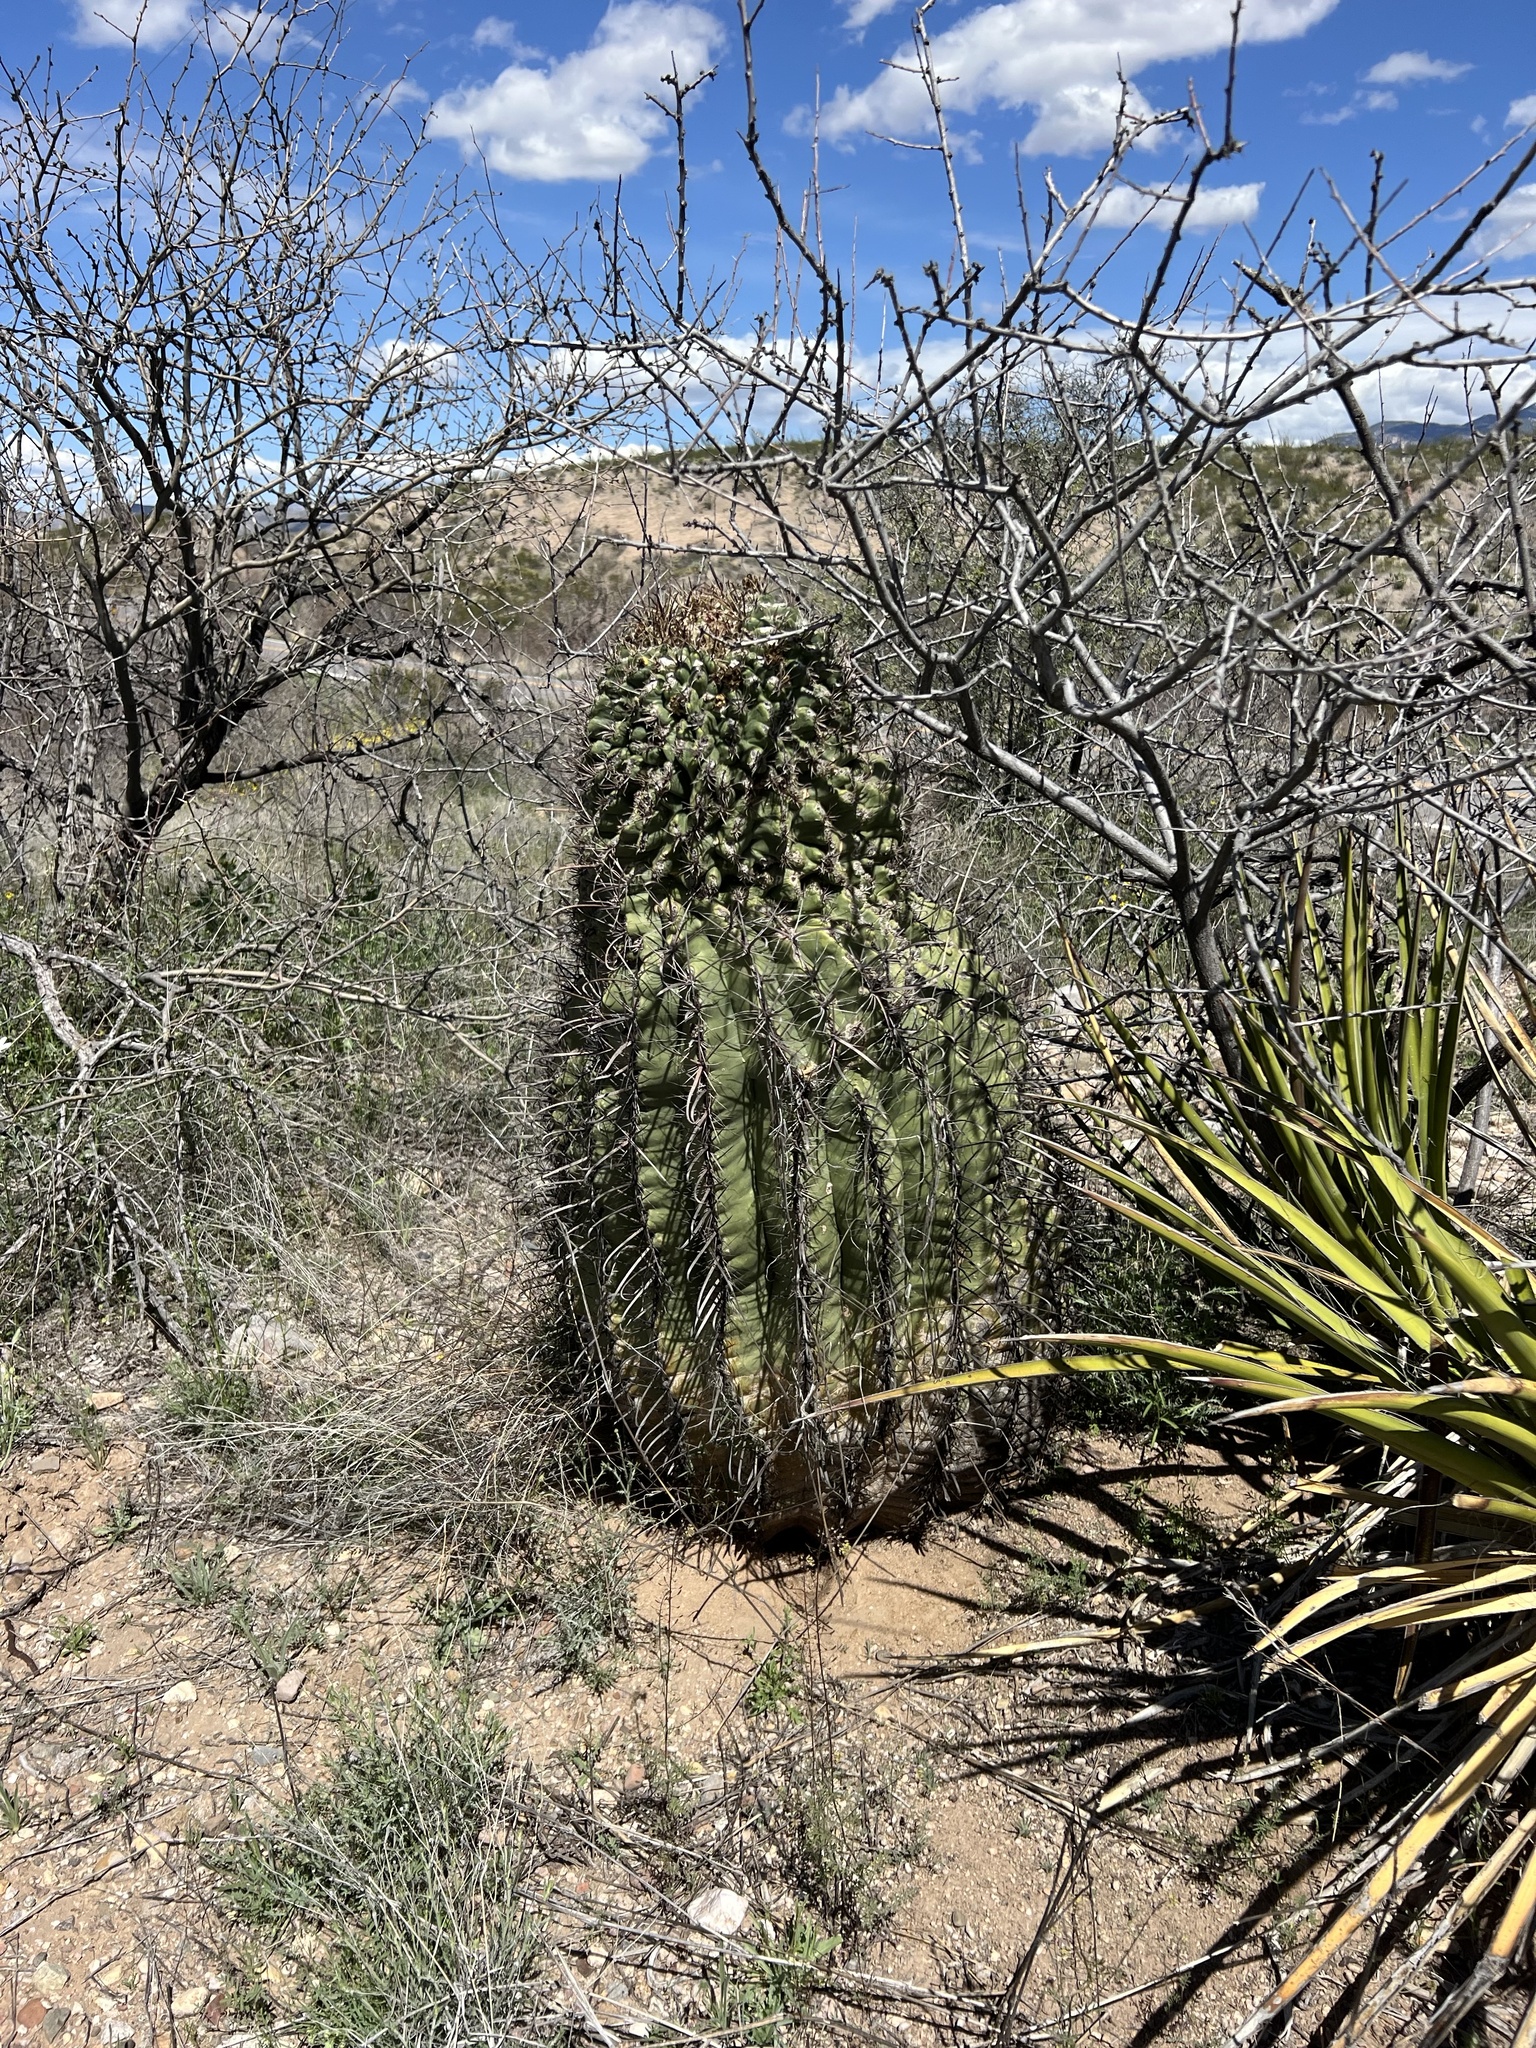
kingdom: Plantae
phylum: Tracheophyta
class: Magnoliopsida
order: Caryophyllales
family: Cactaceae
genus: Ferocactus
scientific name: Ferocactus wislizeni
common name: Candy barrel cactus
